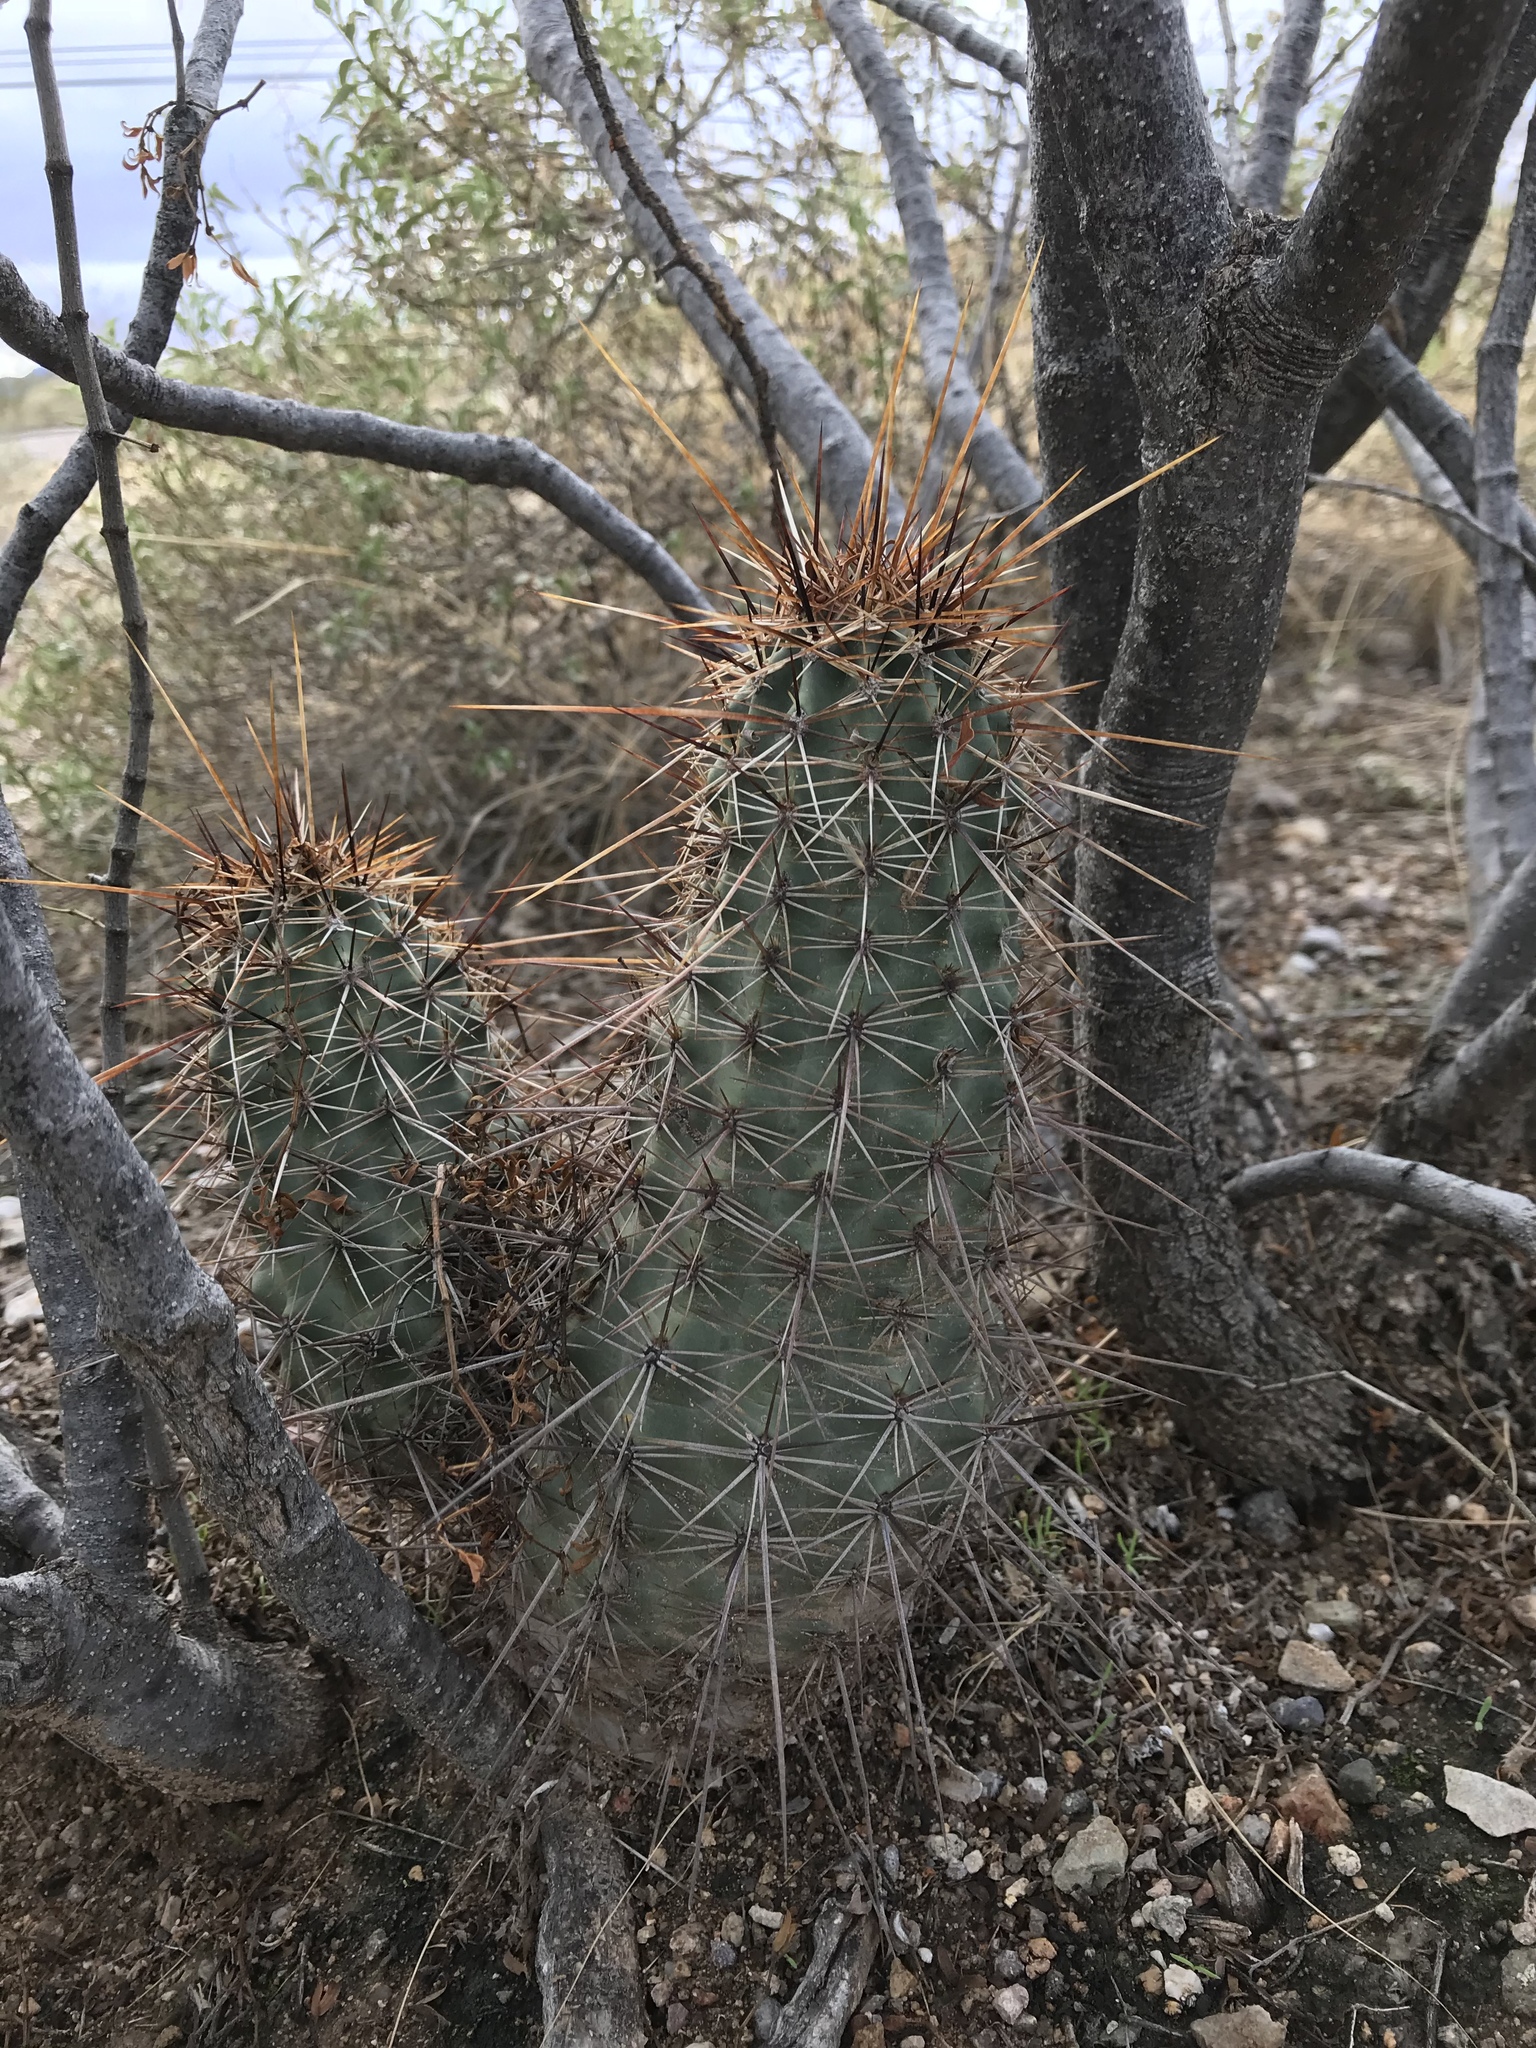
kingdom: Plantae
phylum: Tracheophyta
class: Magnoliopsida
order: Caryophyllales
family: Cactaceae
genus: Echinocereus
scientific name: Echinocereus fasciculatus
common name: Bundle hedgehog
